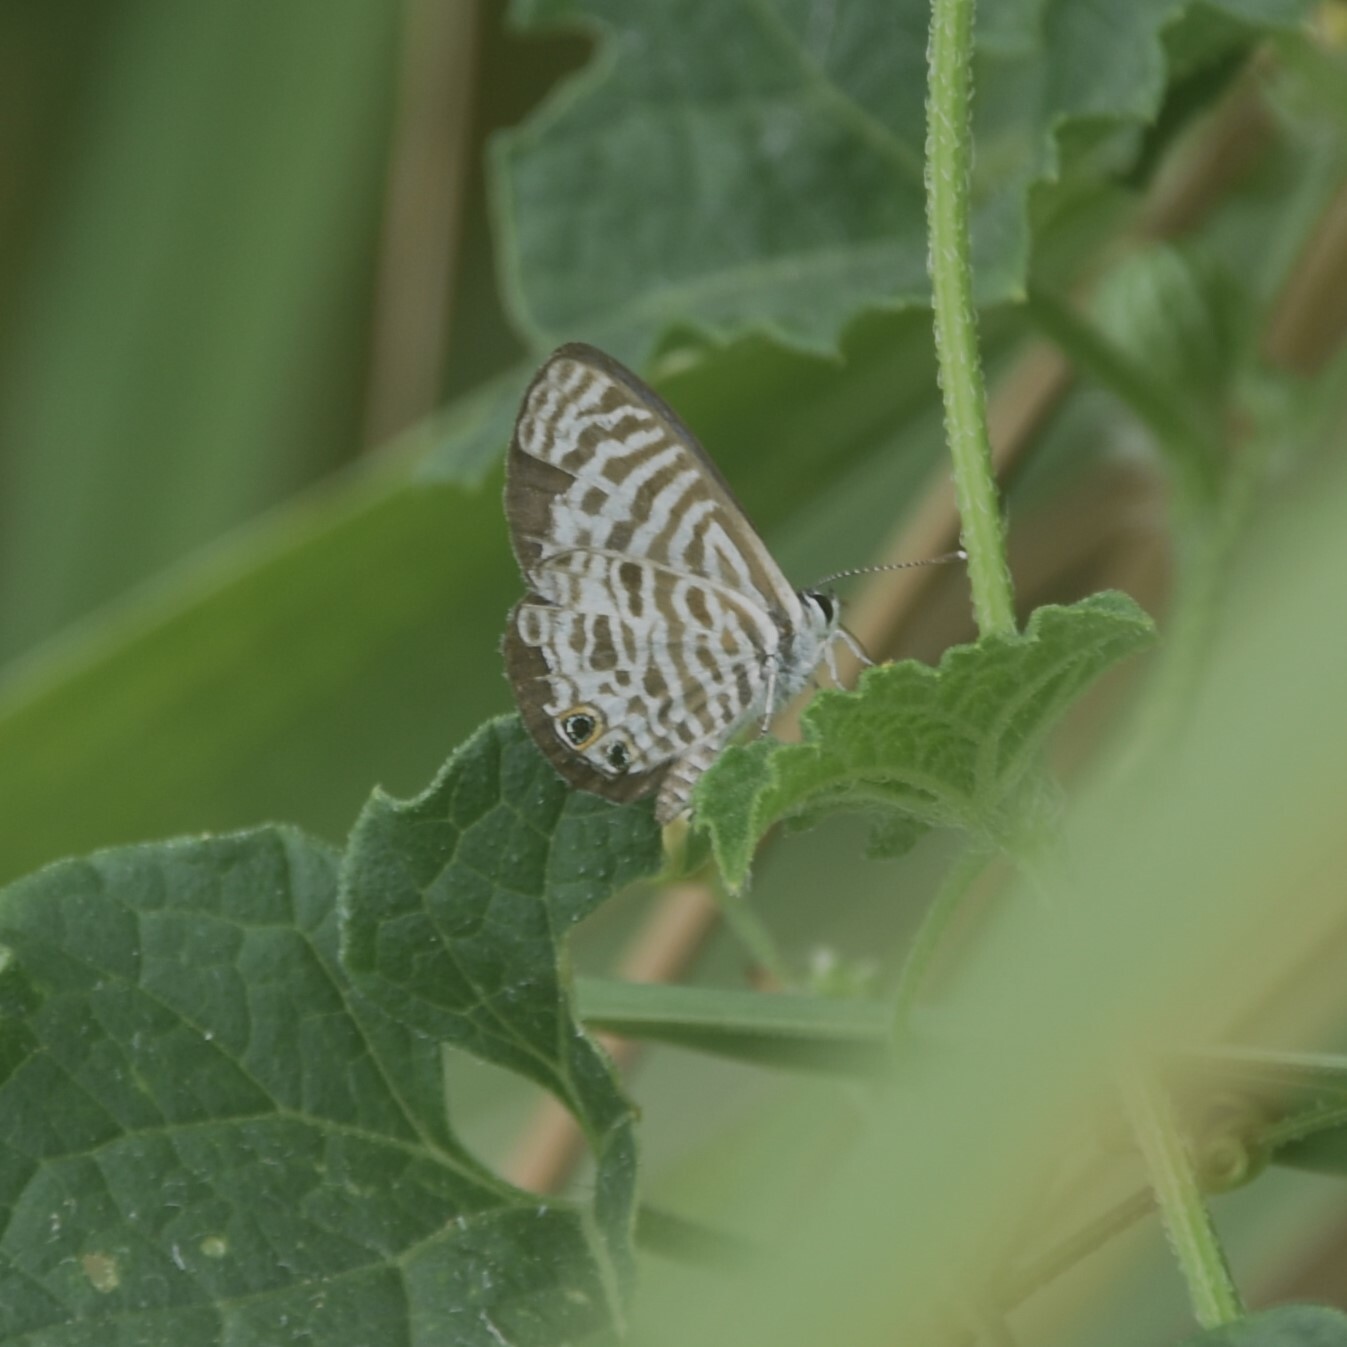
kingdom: Animalia
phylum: Arthropoda
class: Insecta
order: Lepidoptera
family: Lycaenidae
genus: Leptotes
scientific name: Leptotes plinius
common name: Zebra blue
